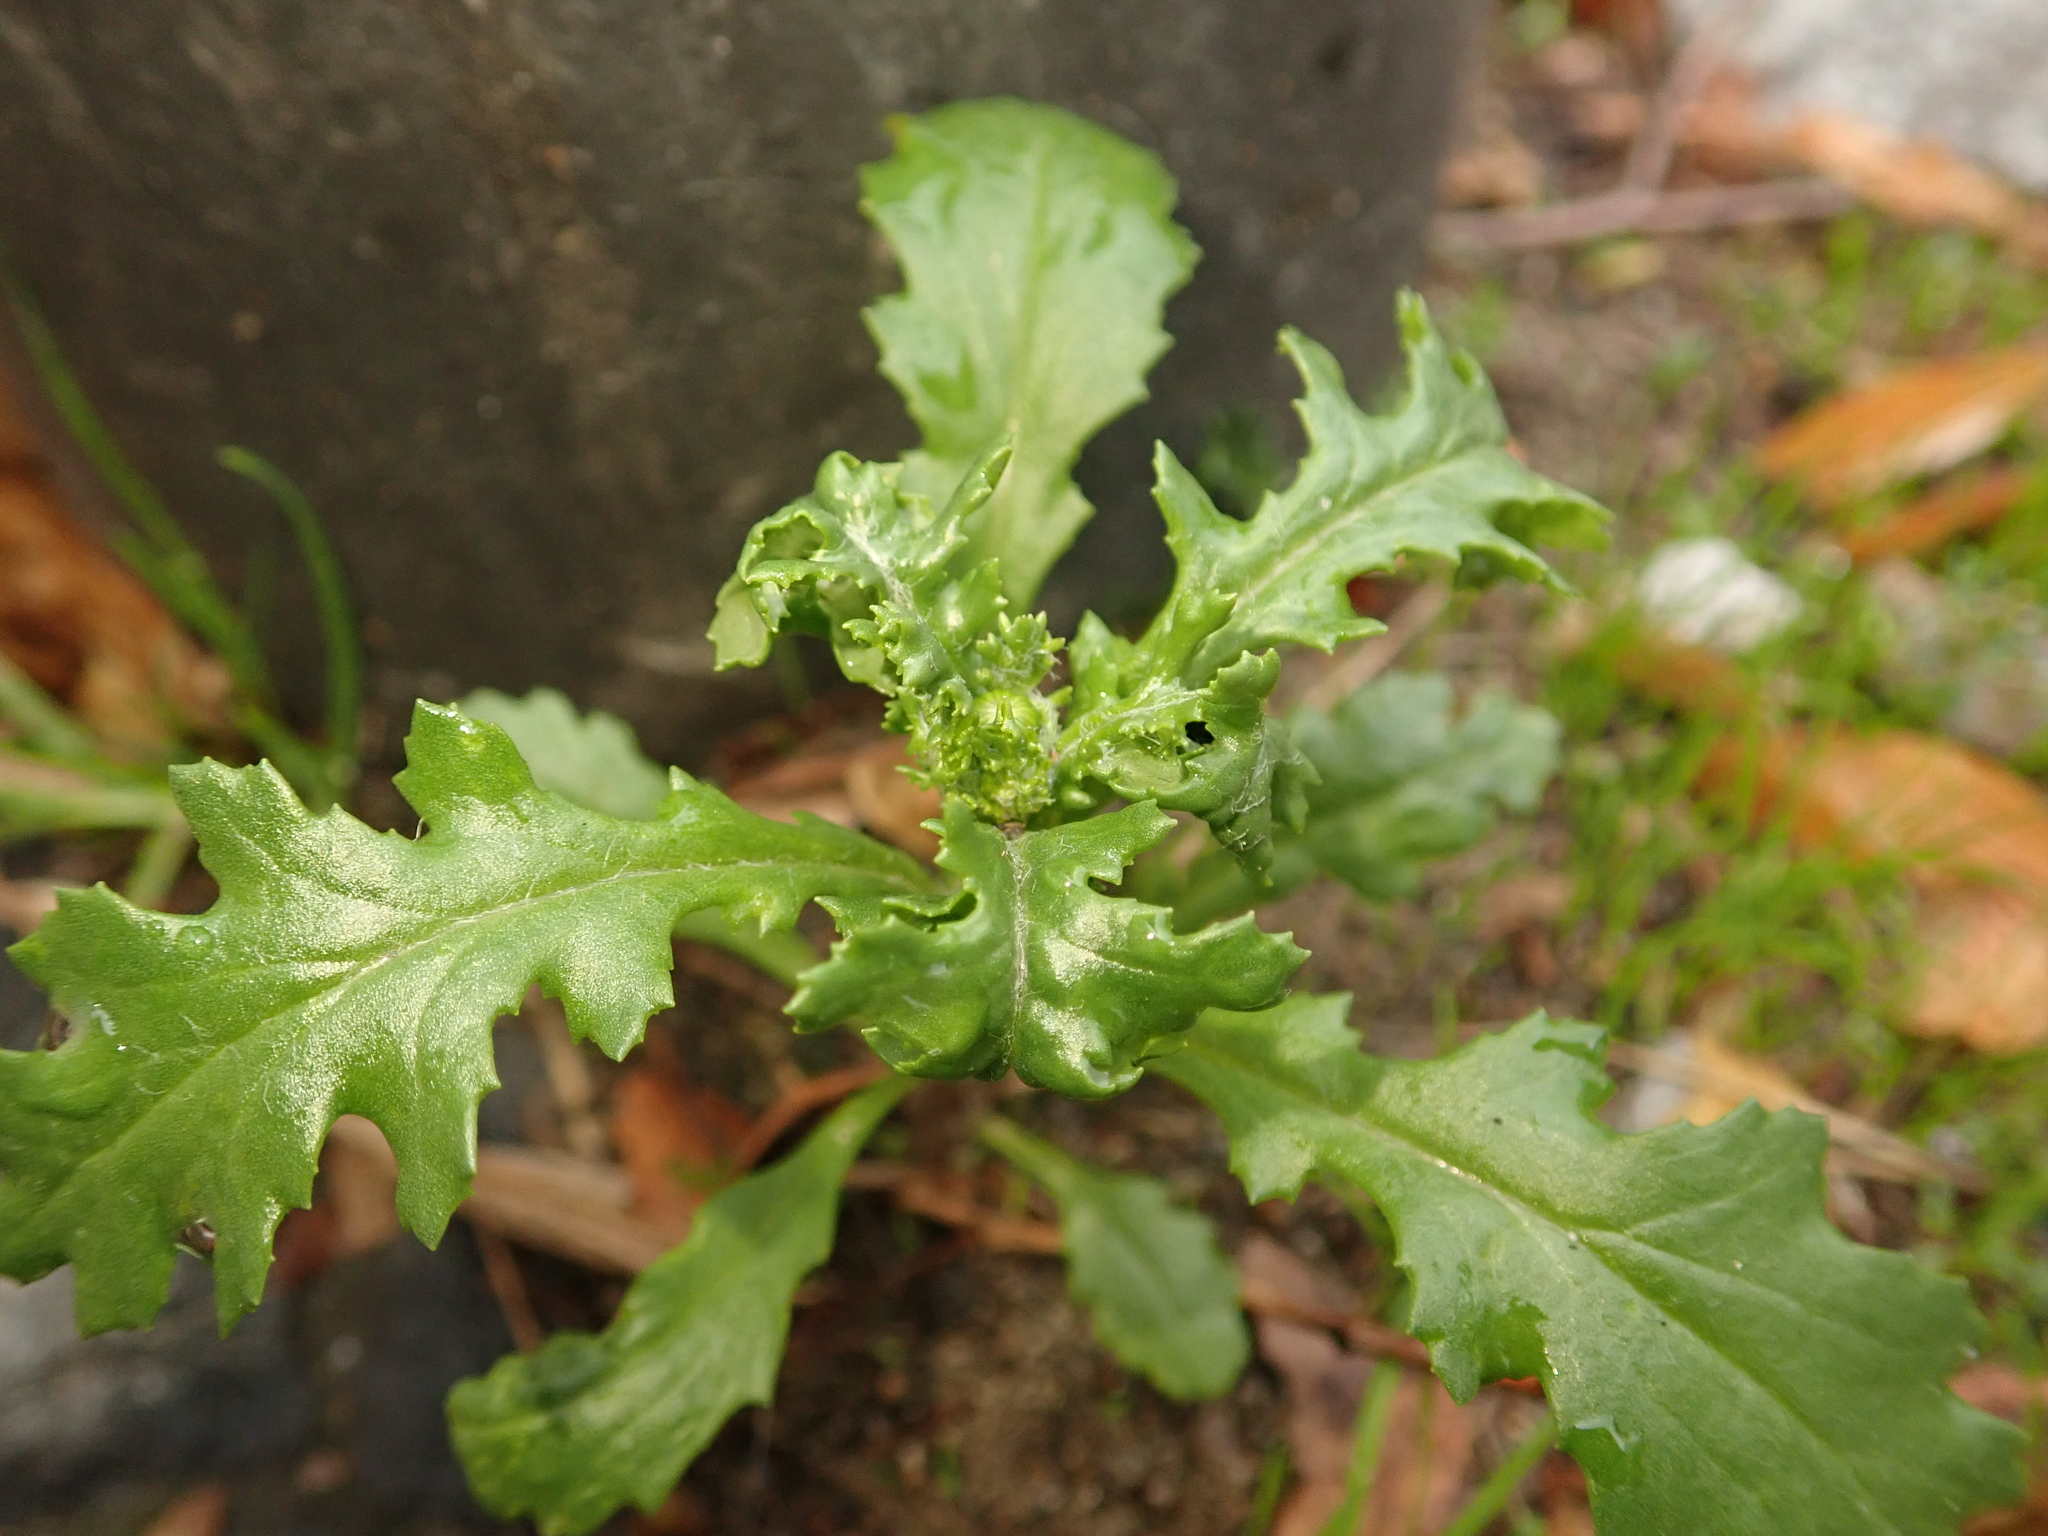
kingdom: Plantae
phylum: Tracheophyta
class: Magnoliopsida
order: Asterales
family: Asteraceae
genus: Senecio
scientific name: Senecio vulgaris
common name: Old-man-in-the-spring
